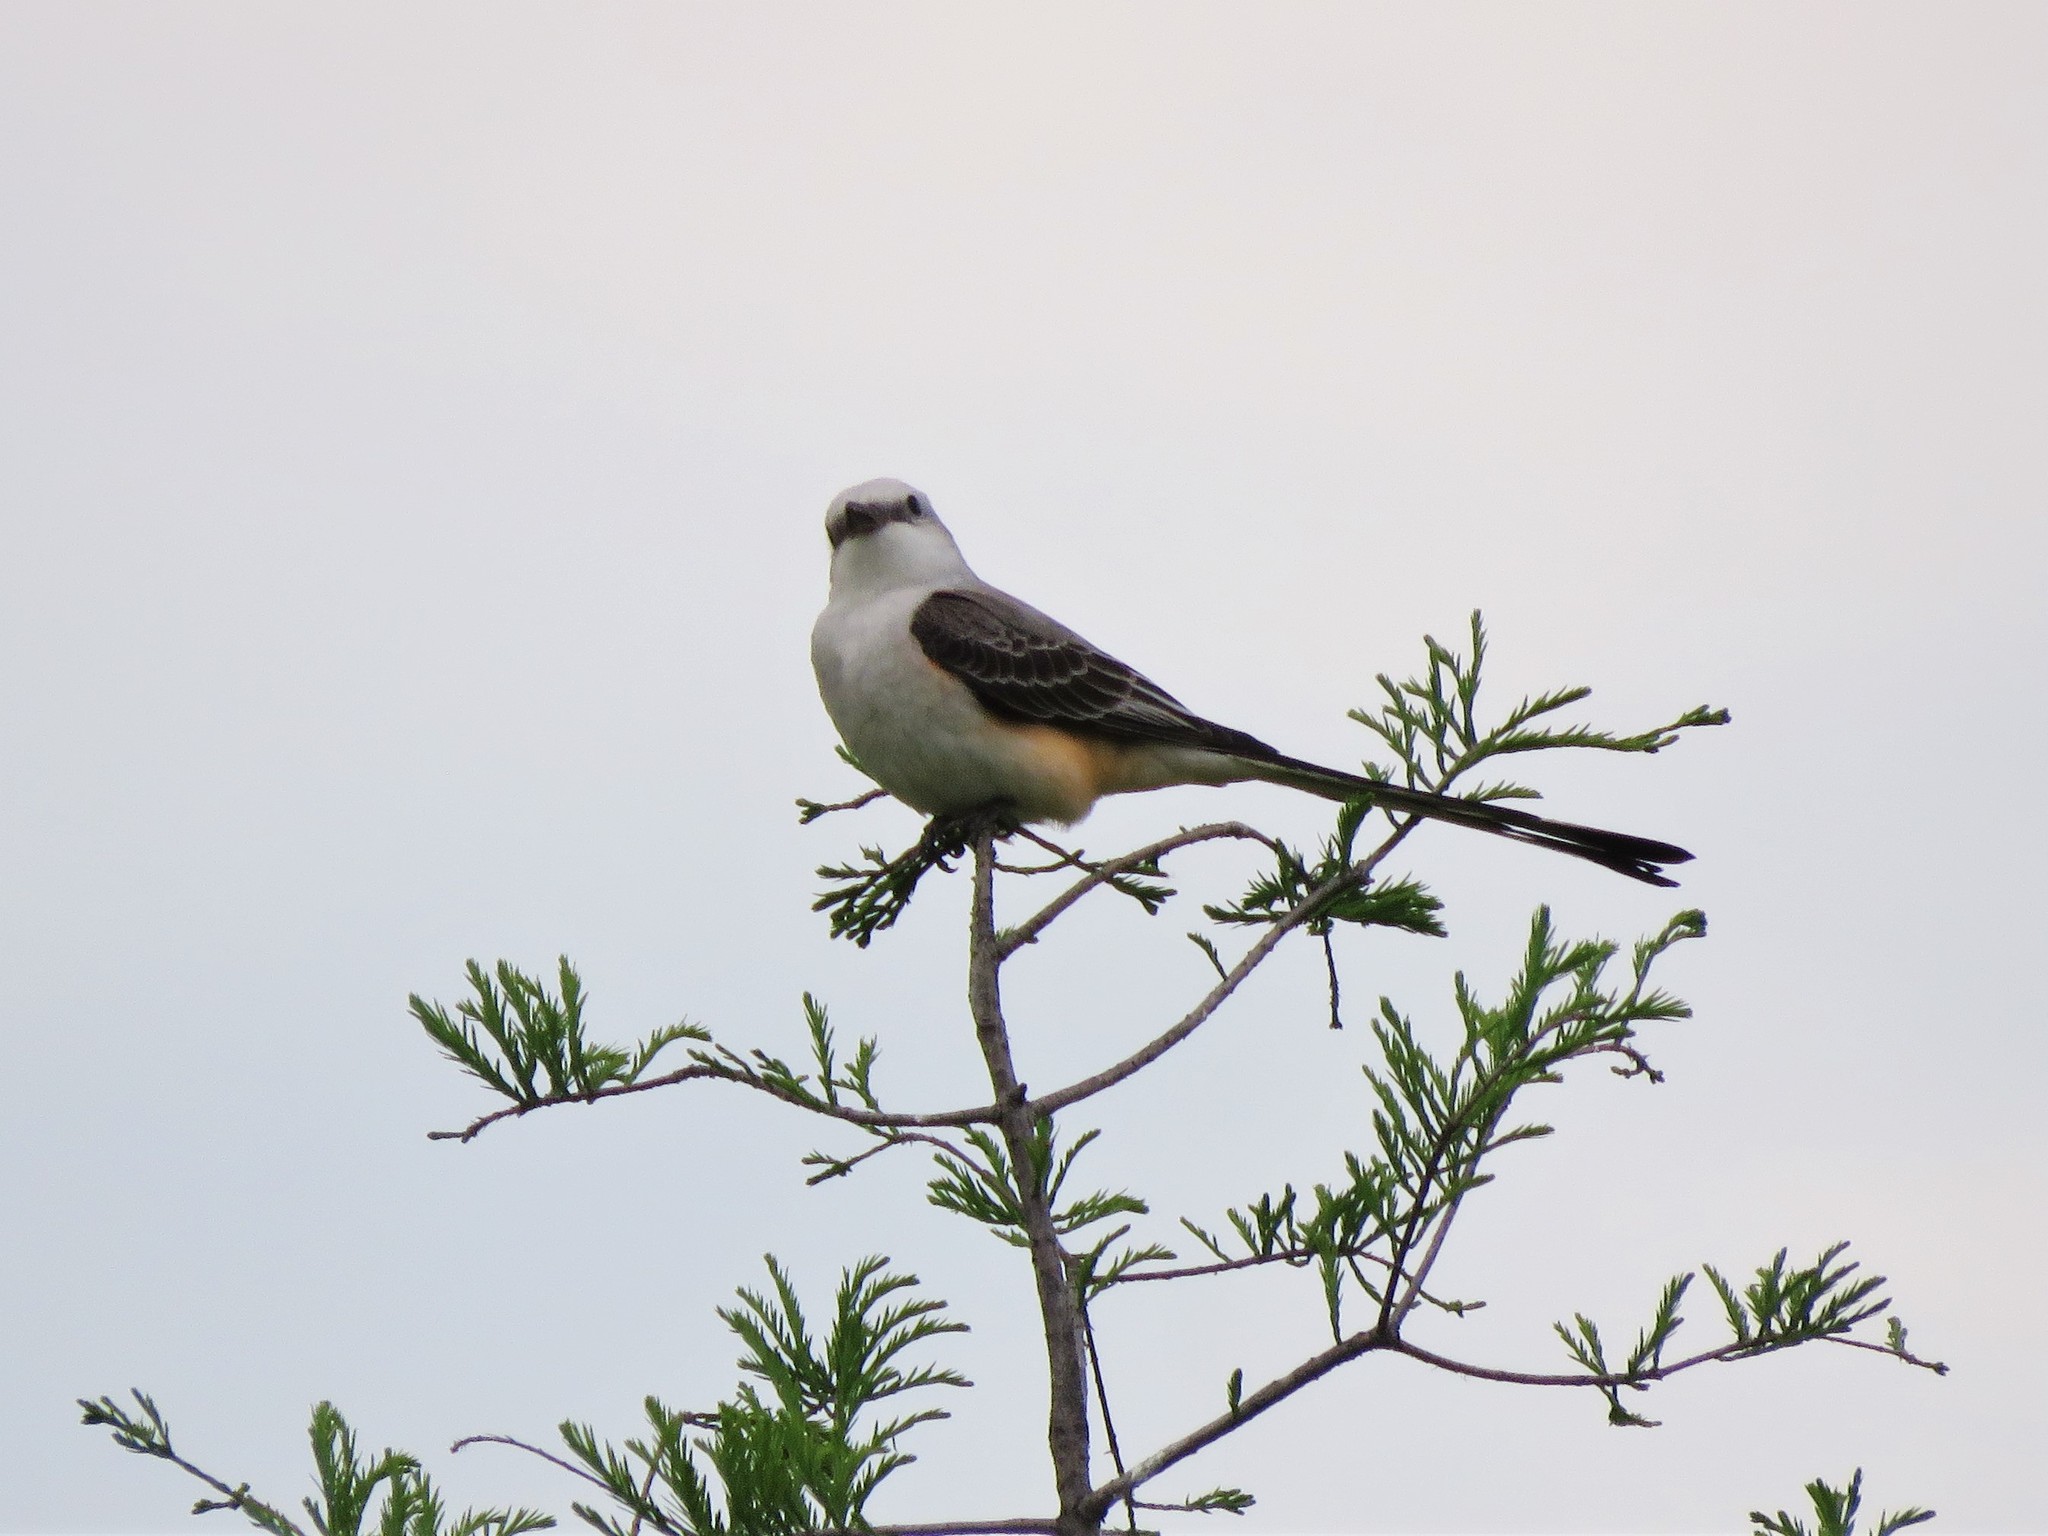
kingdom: Animalia
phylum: Chordata
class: Aves
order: Passeriformes
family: Tyrannidae
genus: Tyrannus
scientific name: Tyrannus forficatus
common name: Scissor-tailed flycatcher
